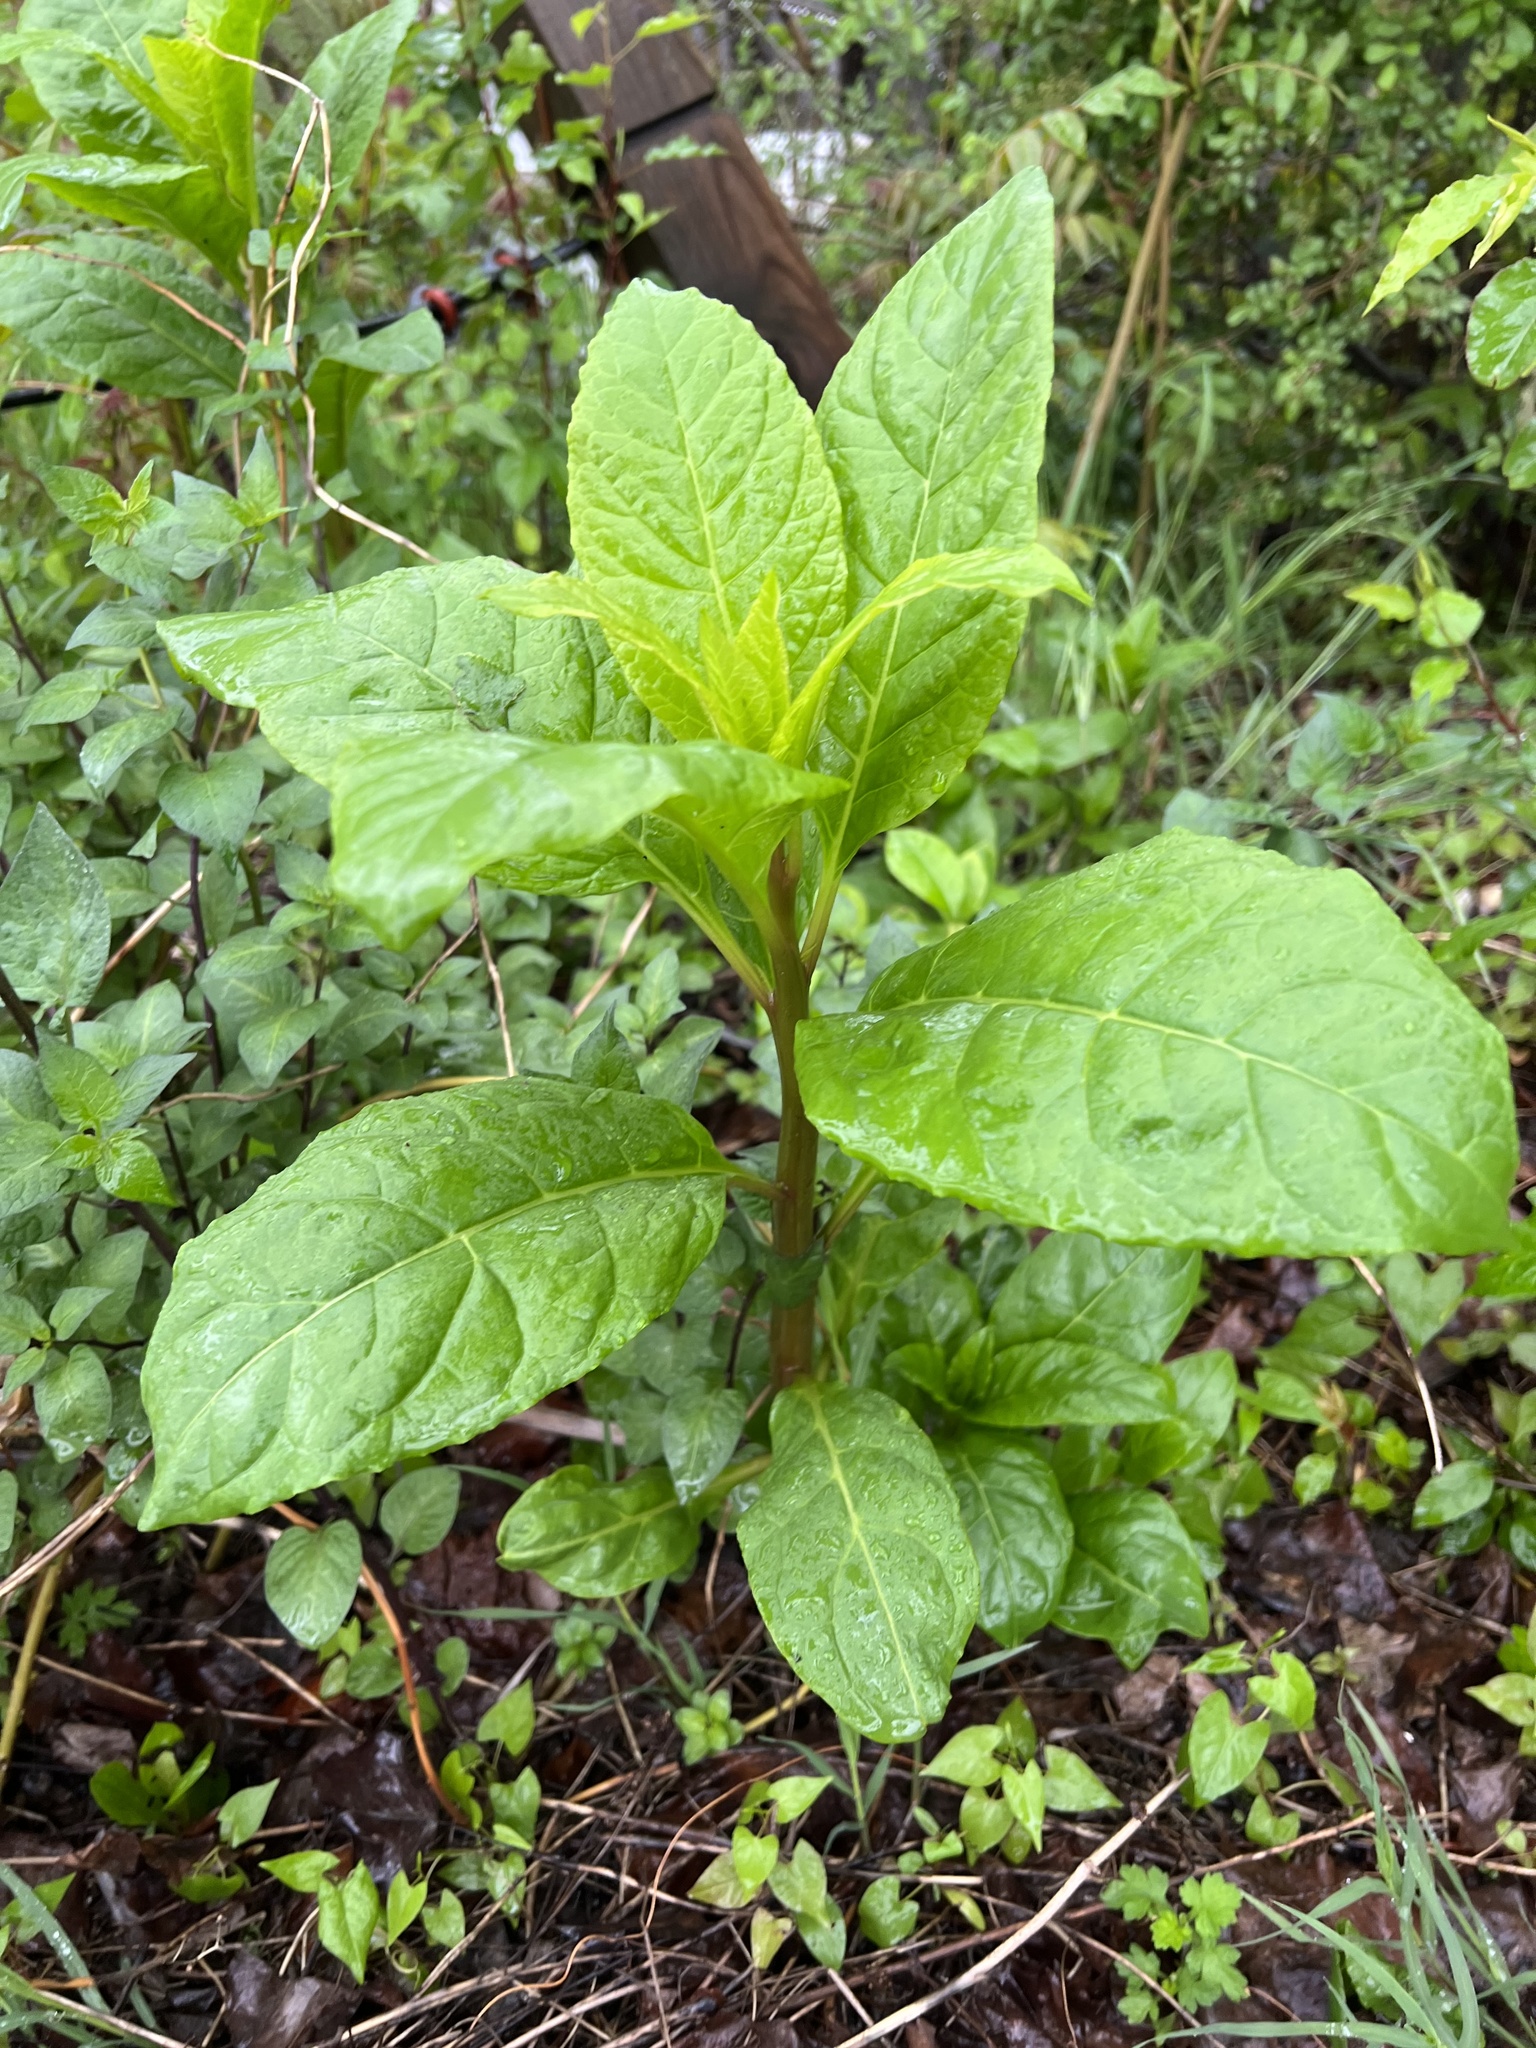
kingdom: Plantae
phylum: Tracheophyta
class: Magnoliopsida
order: Caryophyllales
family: Phytolaccaceae
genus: Phytolacca
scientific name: Phytolacca americana
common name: American pokeweed
